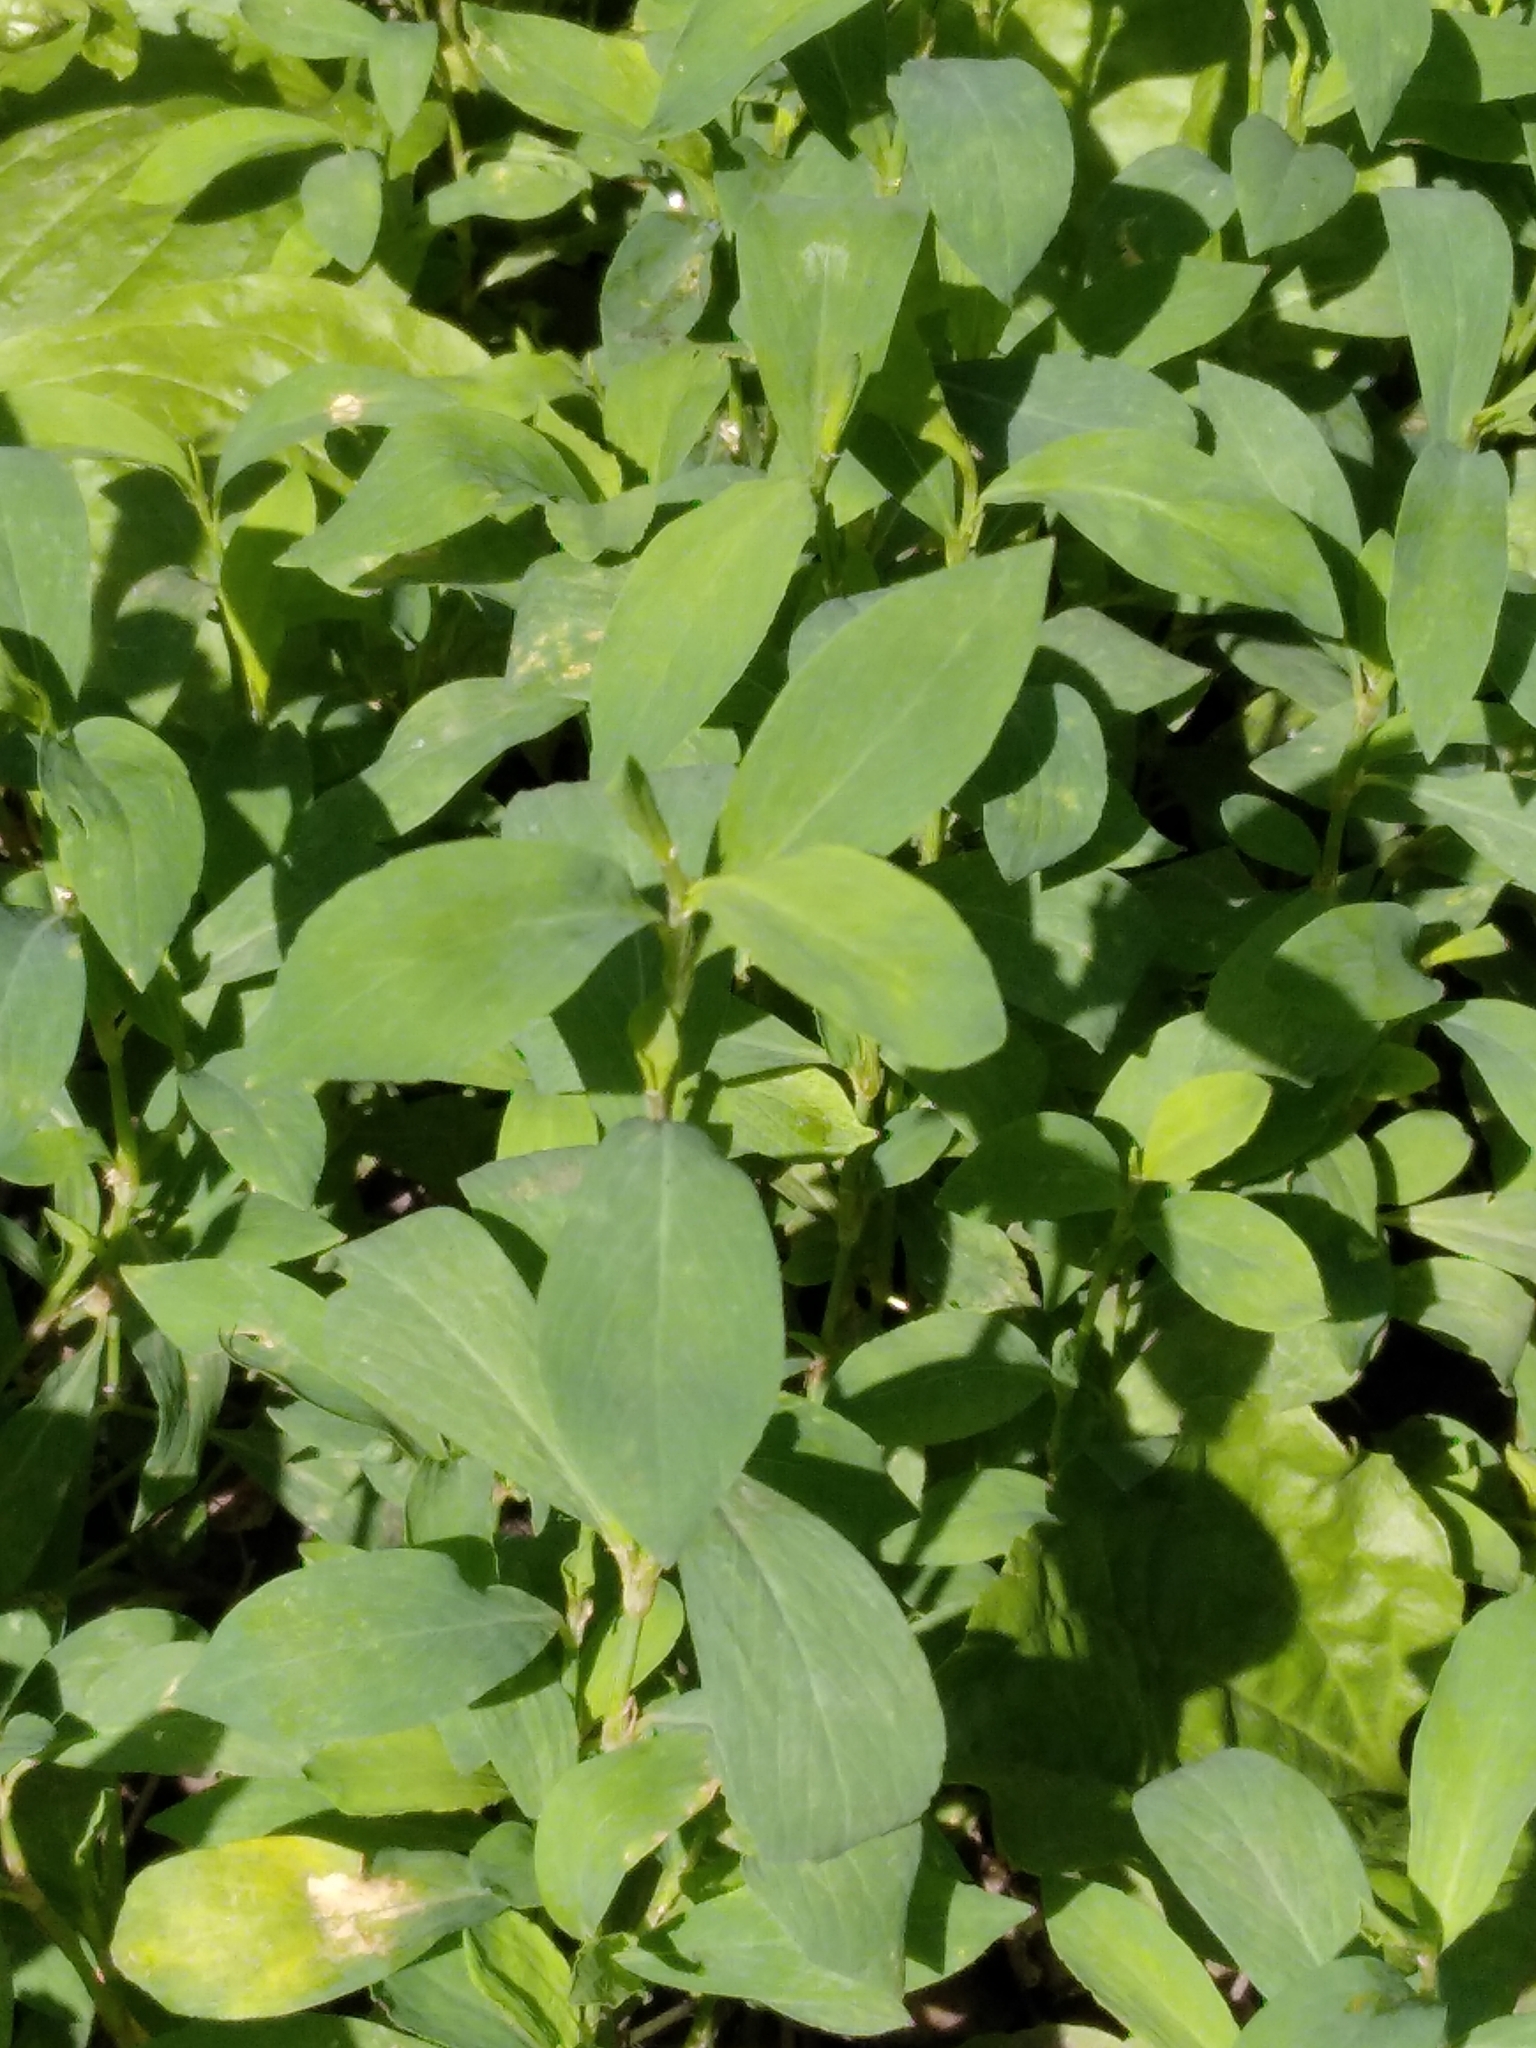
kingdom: Plantae
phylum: Tracheophyta
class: Magnoliopsida
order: Caryophyllales
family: Polygonaceae
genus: Polygonum
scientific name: Polygonum
